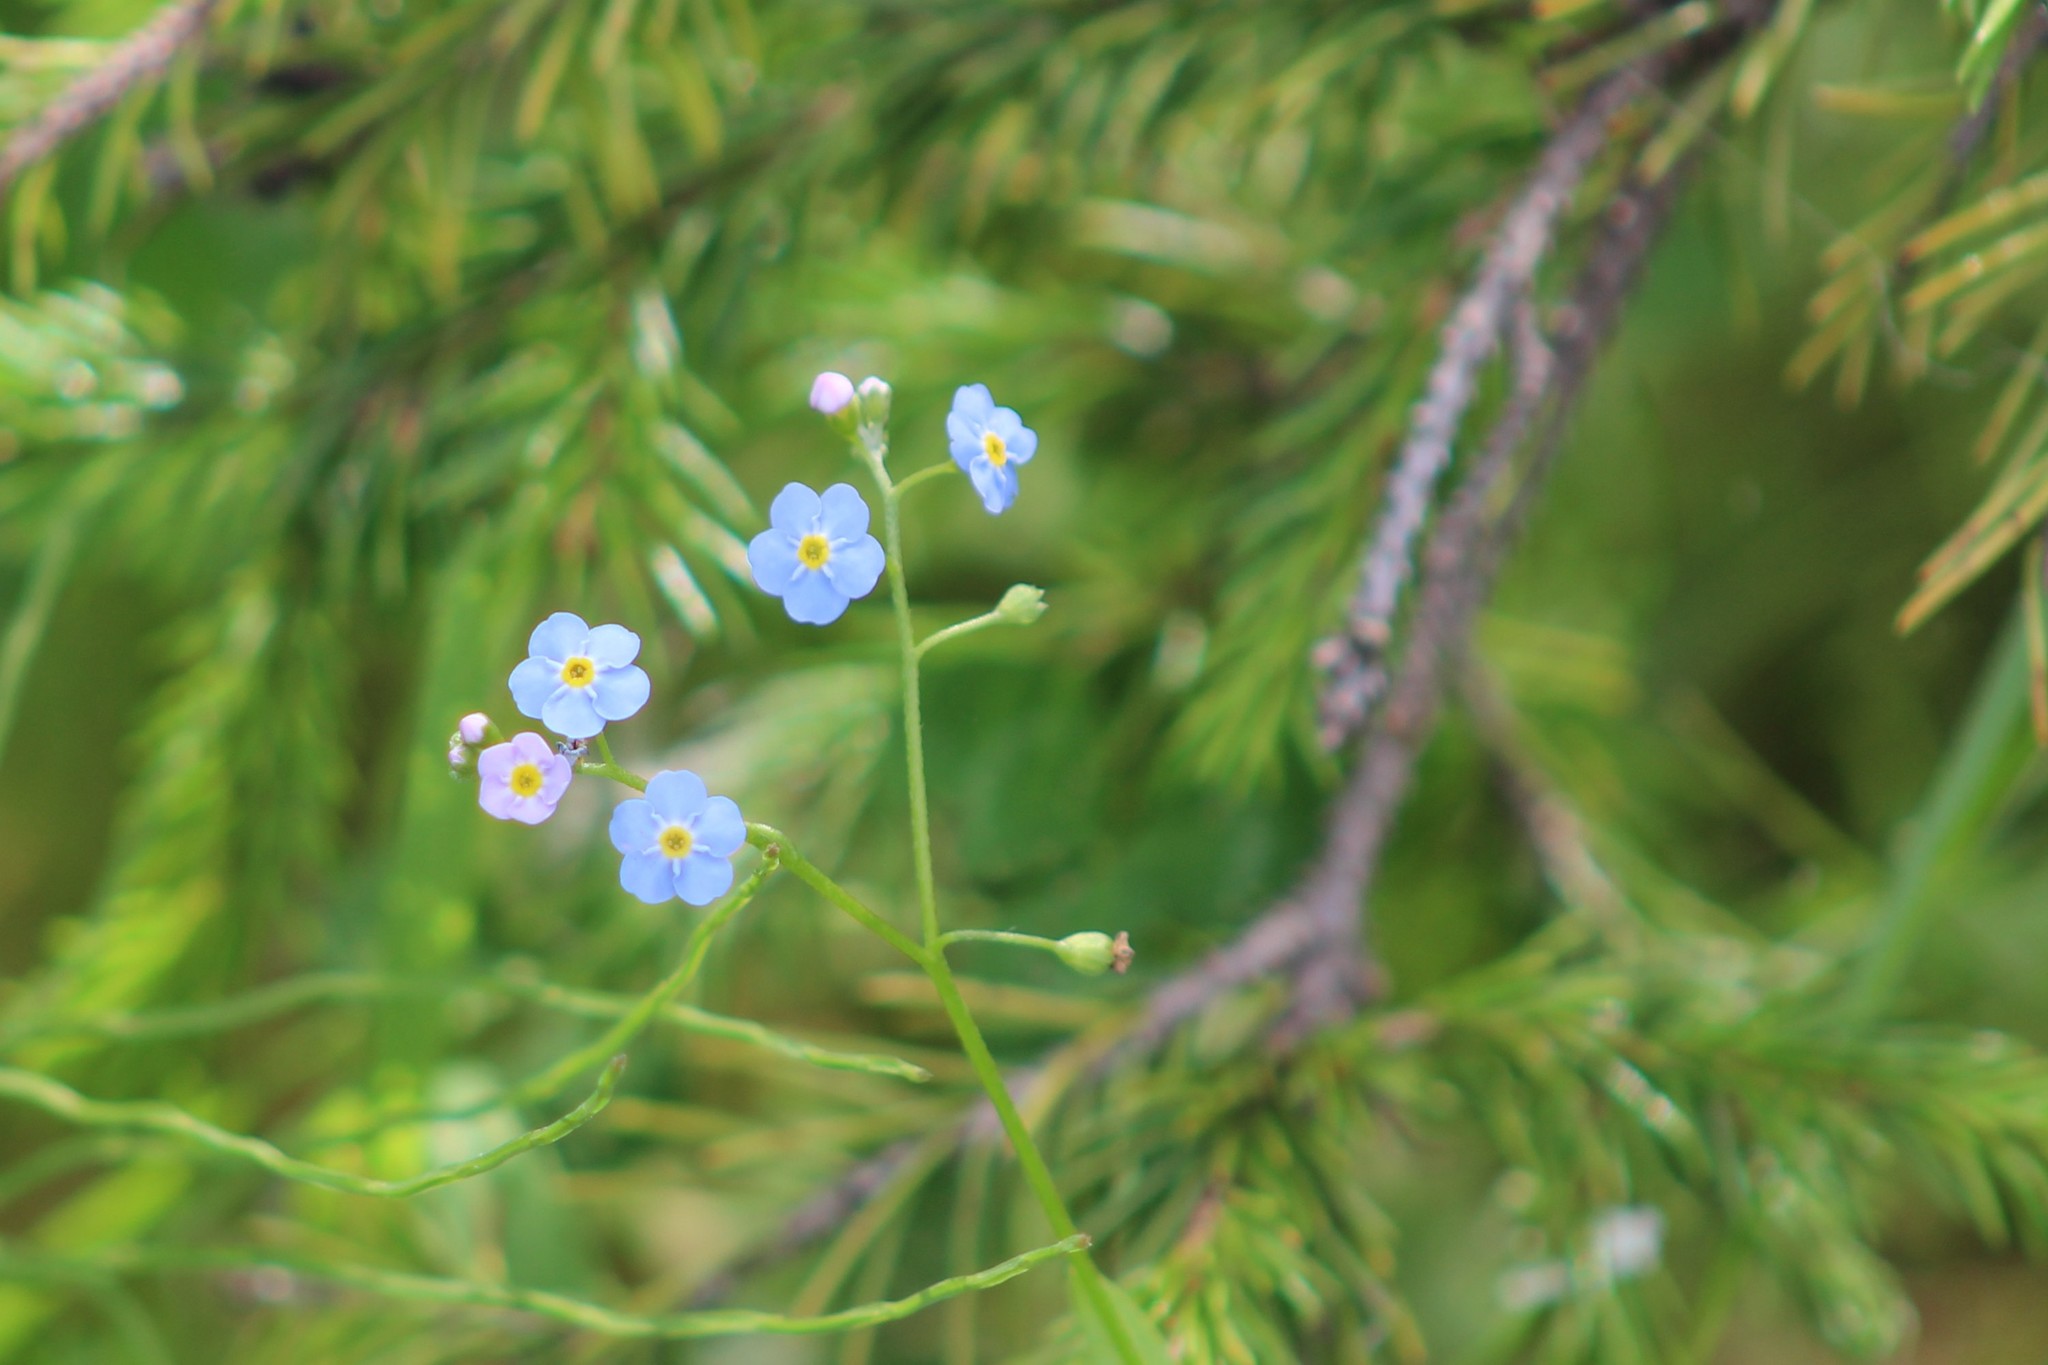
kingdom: Plantae
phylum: Tracheophyta
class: Magnoliopsida
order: Boraginales
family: Boraginaceae
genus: Myosotis
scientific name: Myosotis scorpioides
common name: Water forget-me-not
